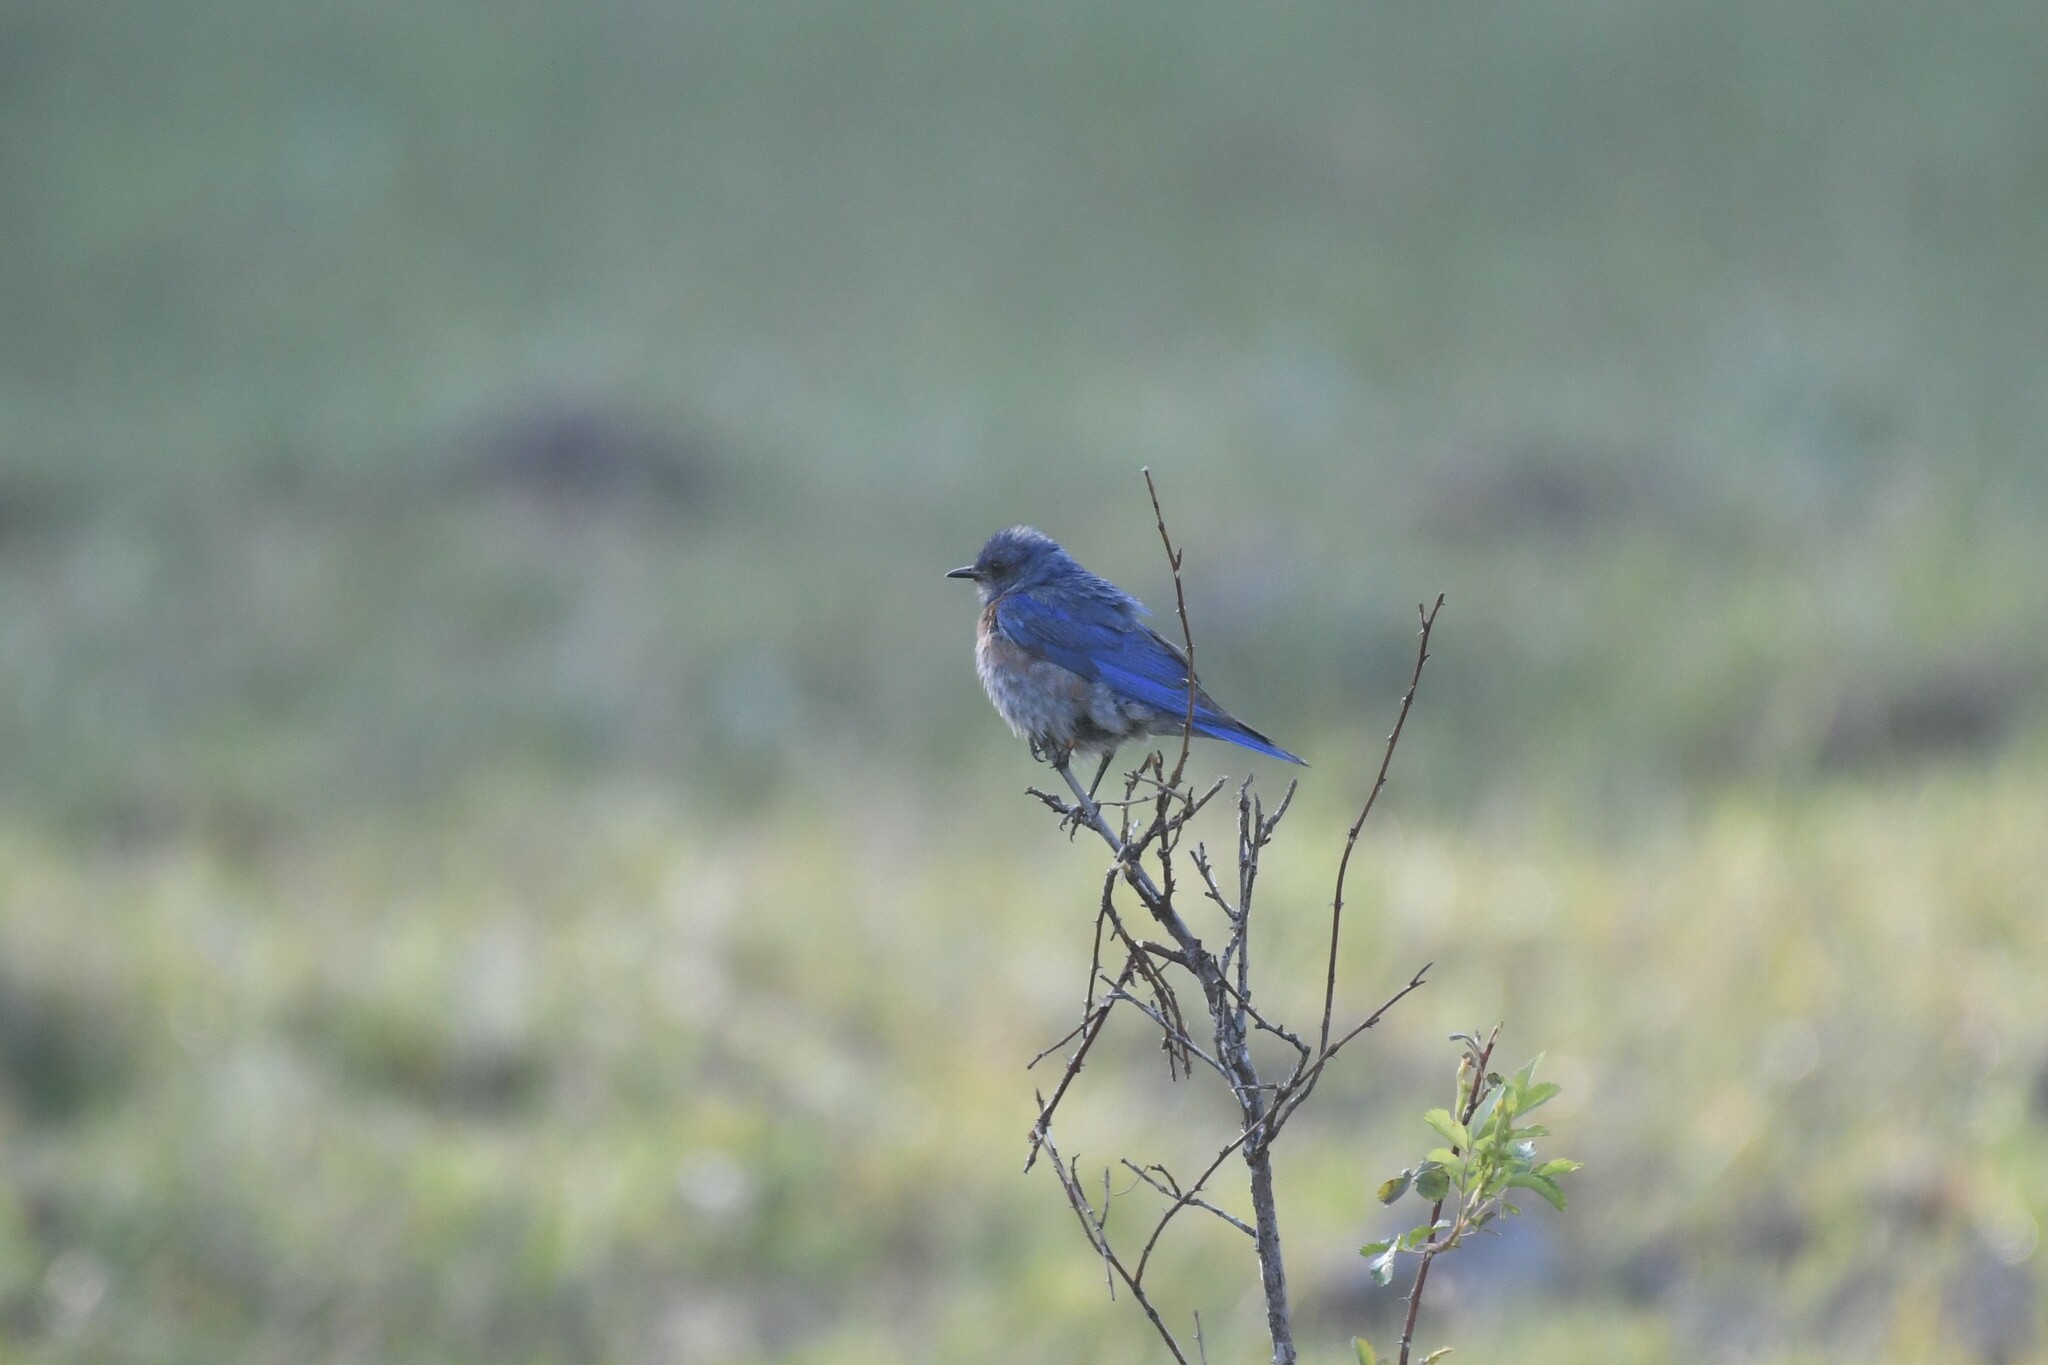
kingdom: Animalia
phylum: Chordata
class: Aves
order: Passeriformes
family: Turdidae
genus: Sialia
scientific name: Sialia mexicana
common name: Western bluebird
